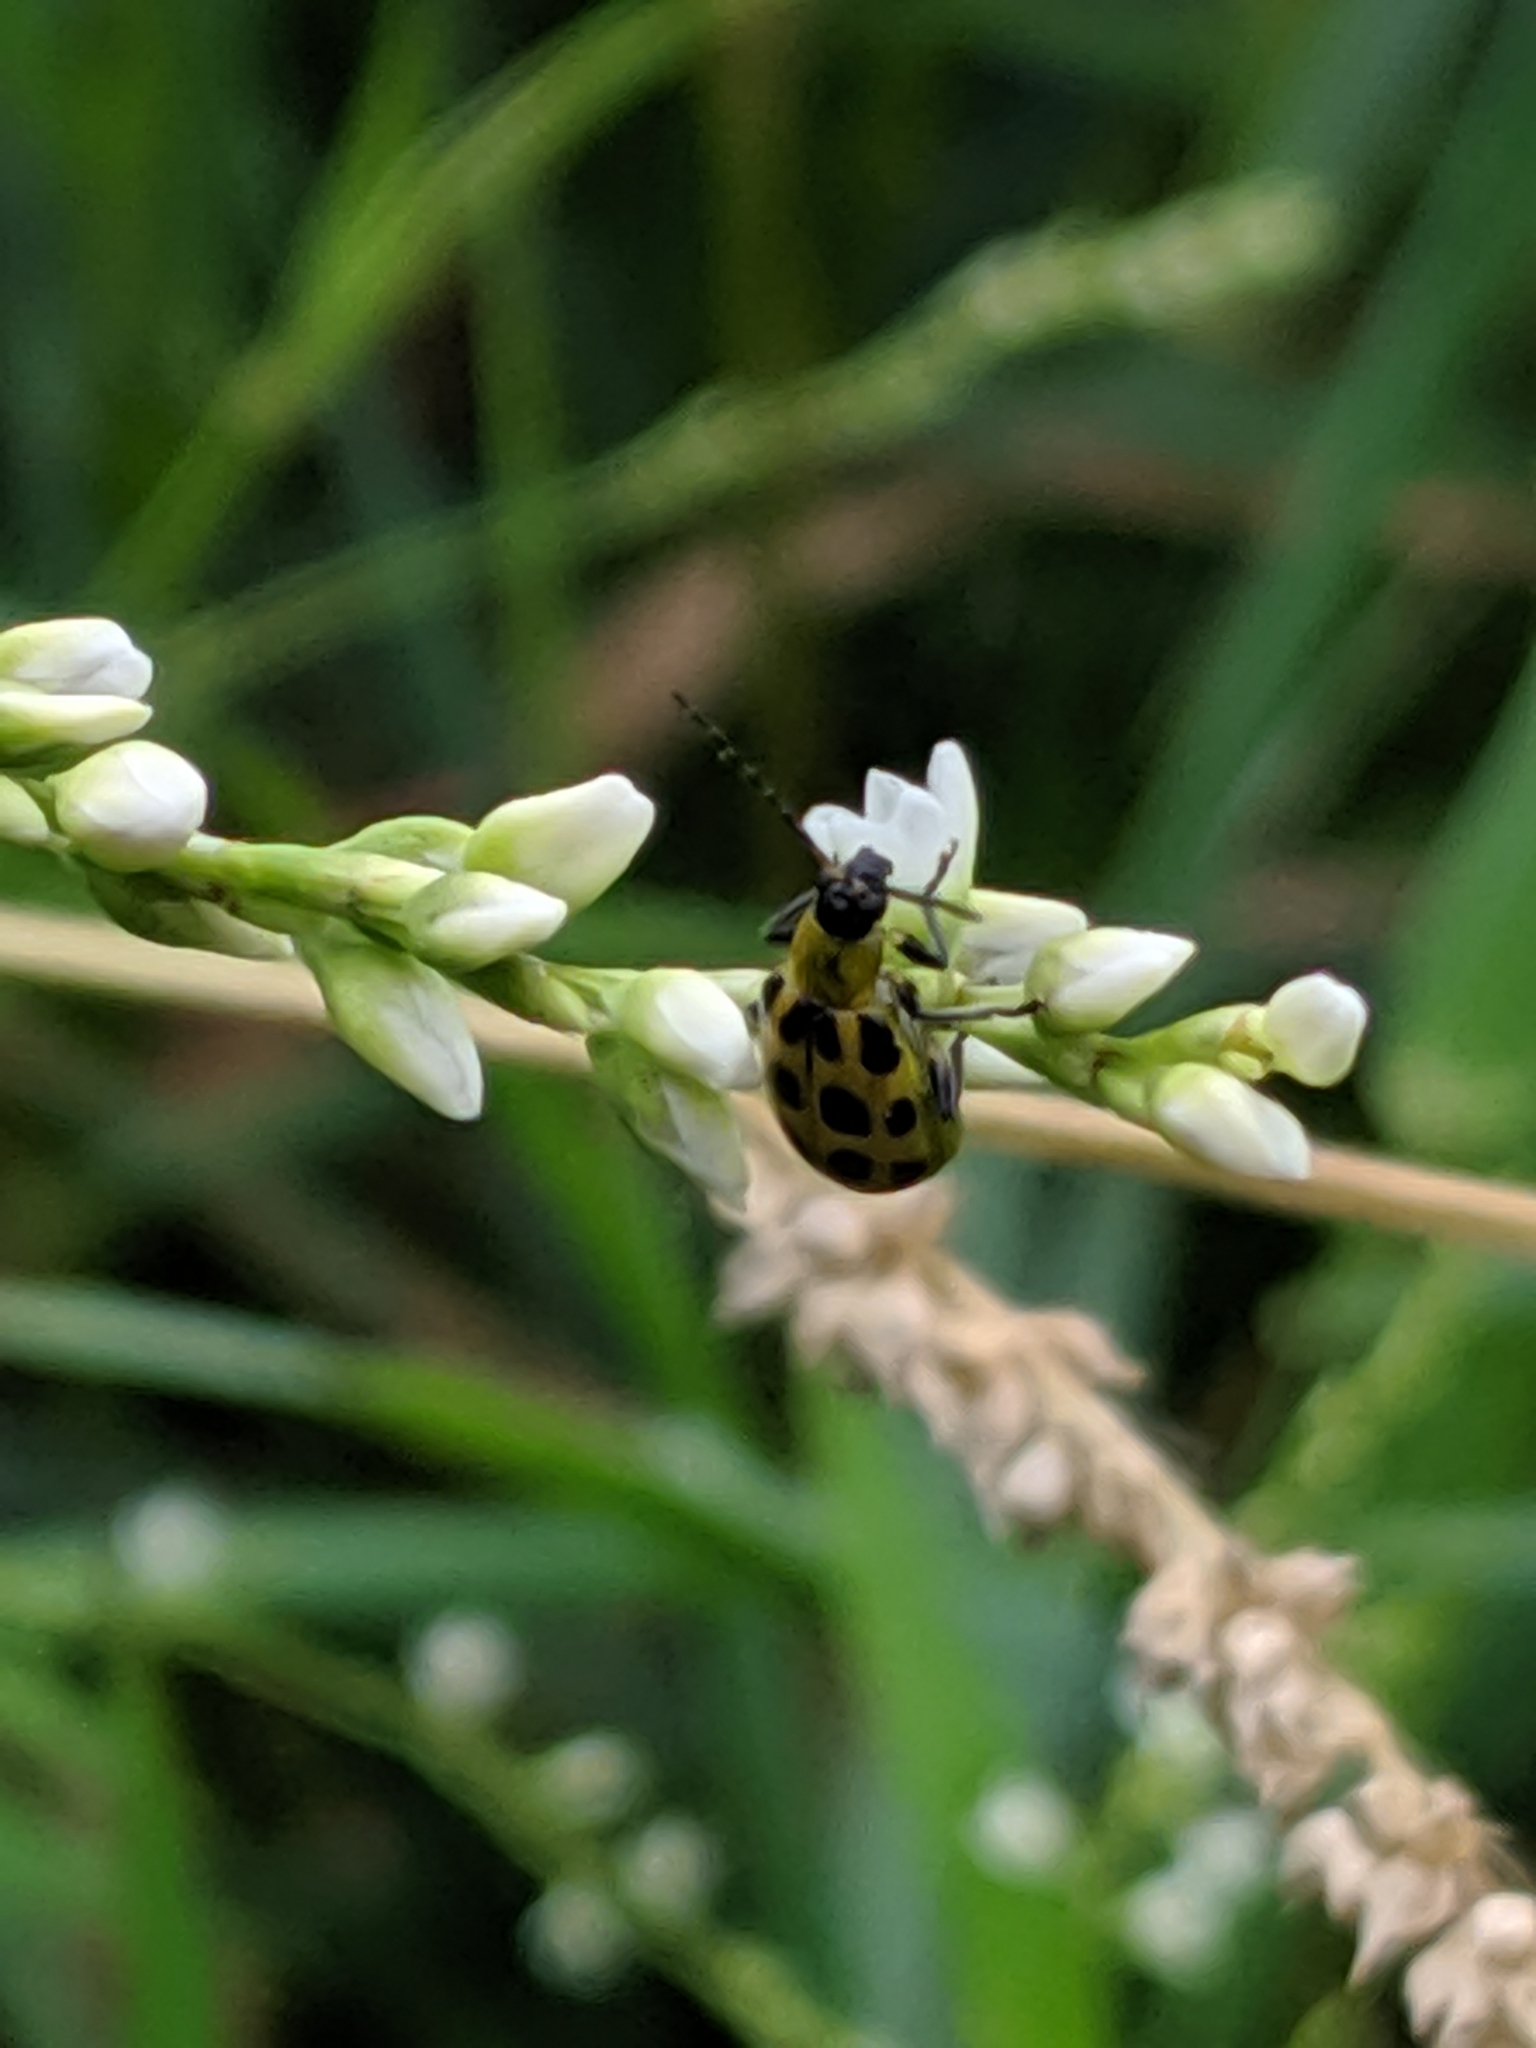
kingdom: Animalia
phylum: Arthropoda
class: Insecta
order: Coleoptera
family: Chrysomelidae
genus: Diabrotica
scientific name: Diabrotica undecimpunctata
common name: Spotted cucumber beetle
